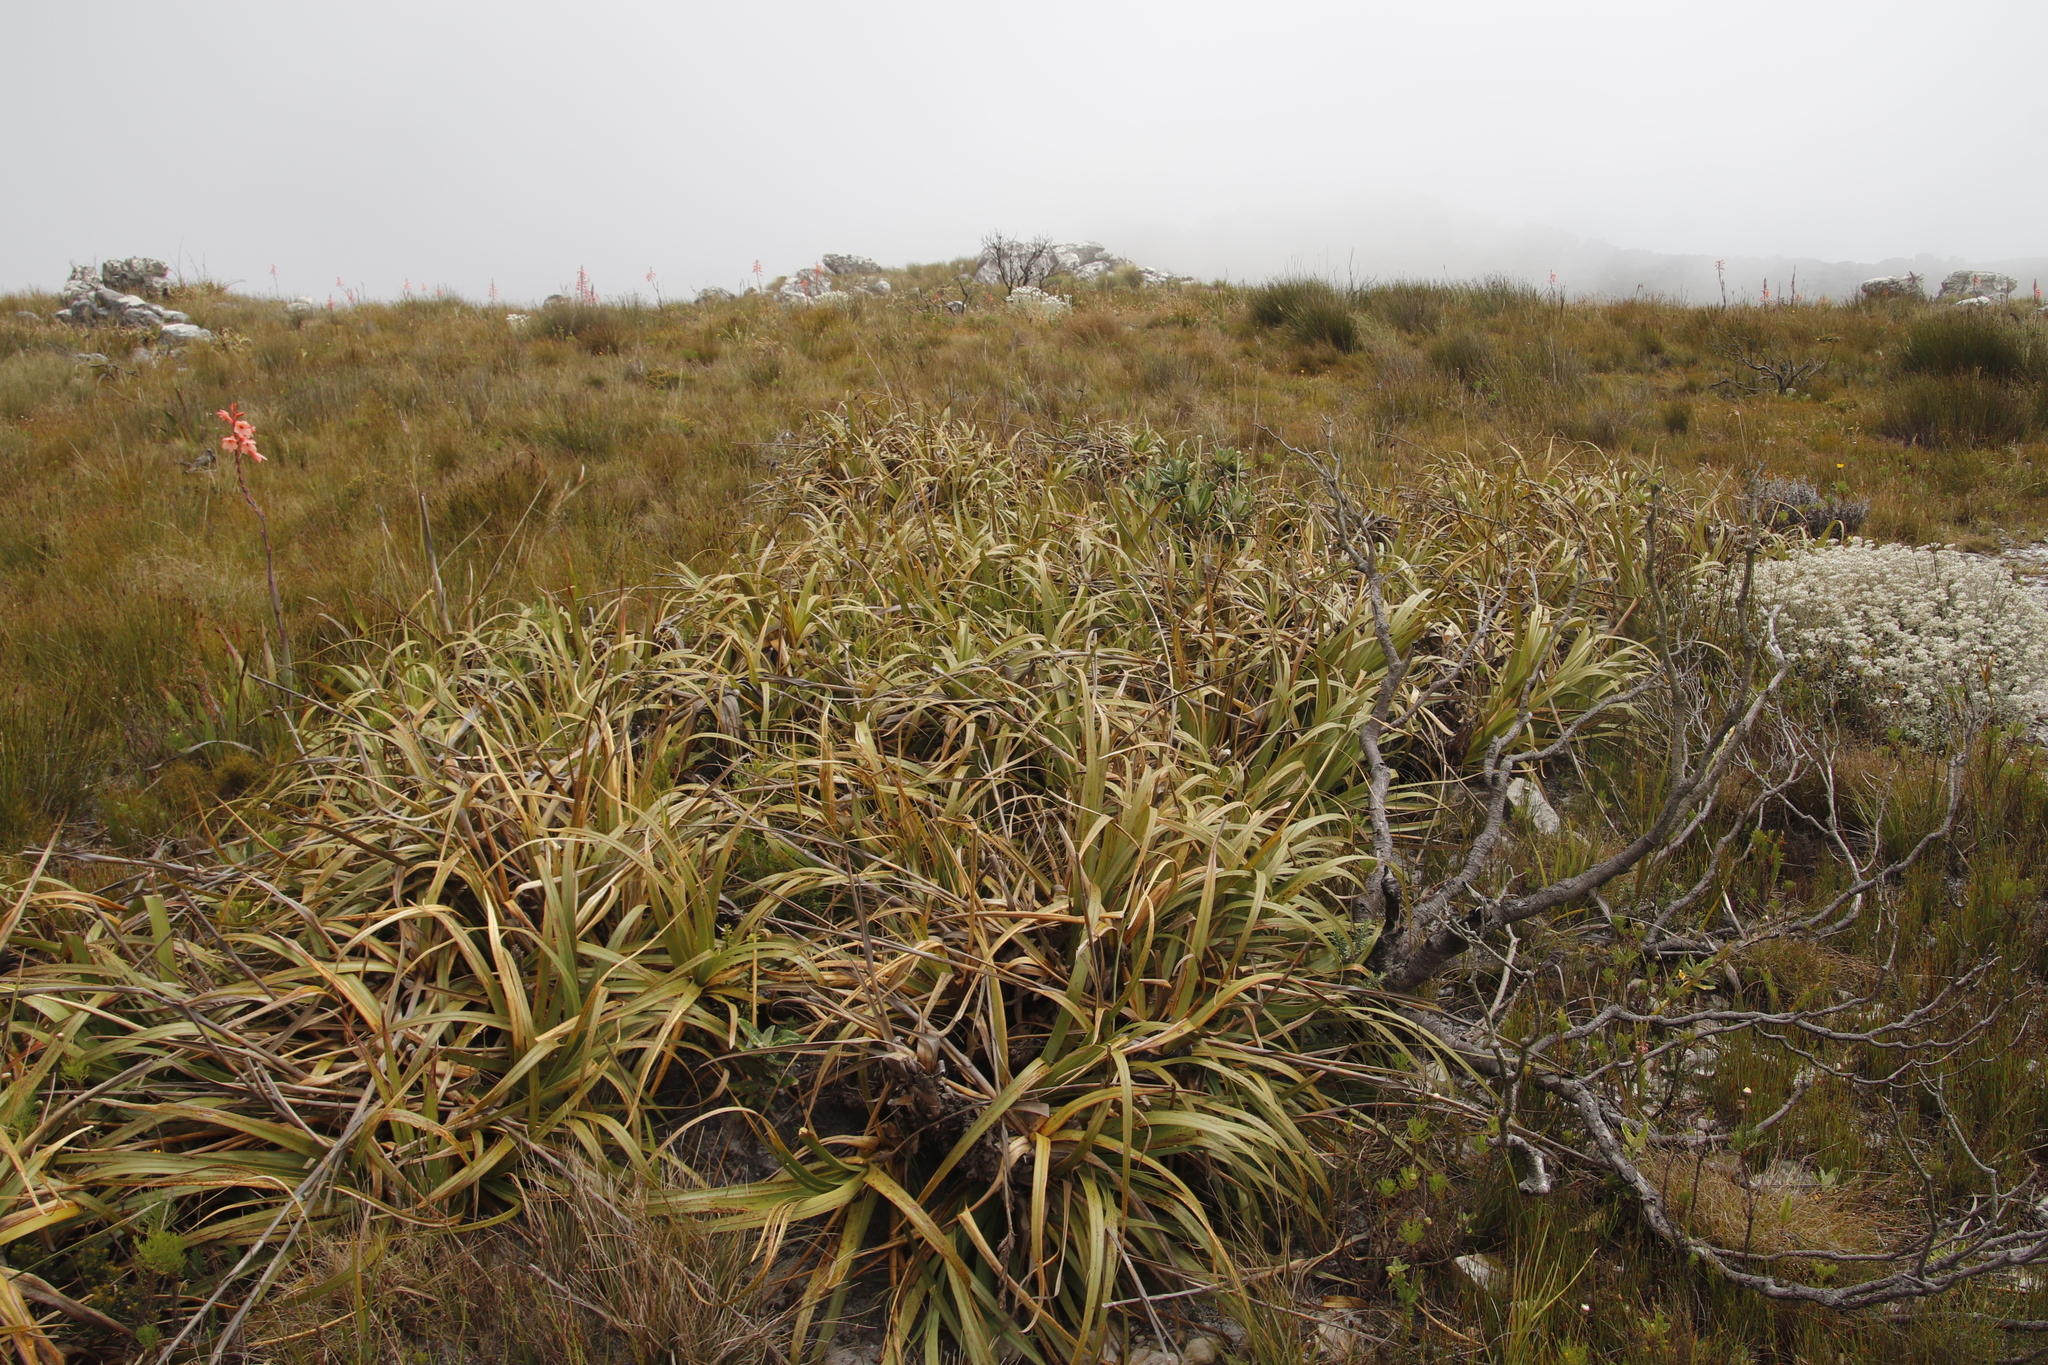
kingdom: Plantae
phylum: Tracheophyta
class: Liliopsida
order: Poales
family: Cyperaceae
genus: Tetraria
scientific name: Tetraria thermalis
